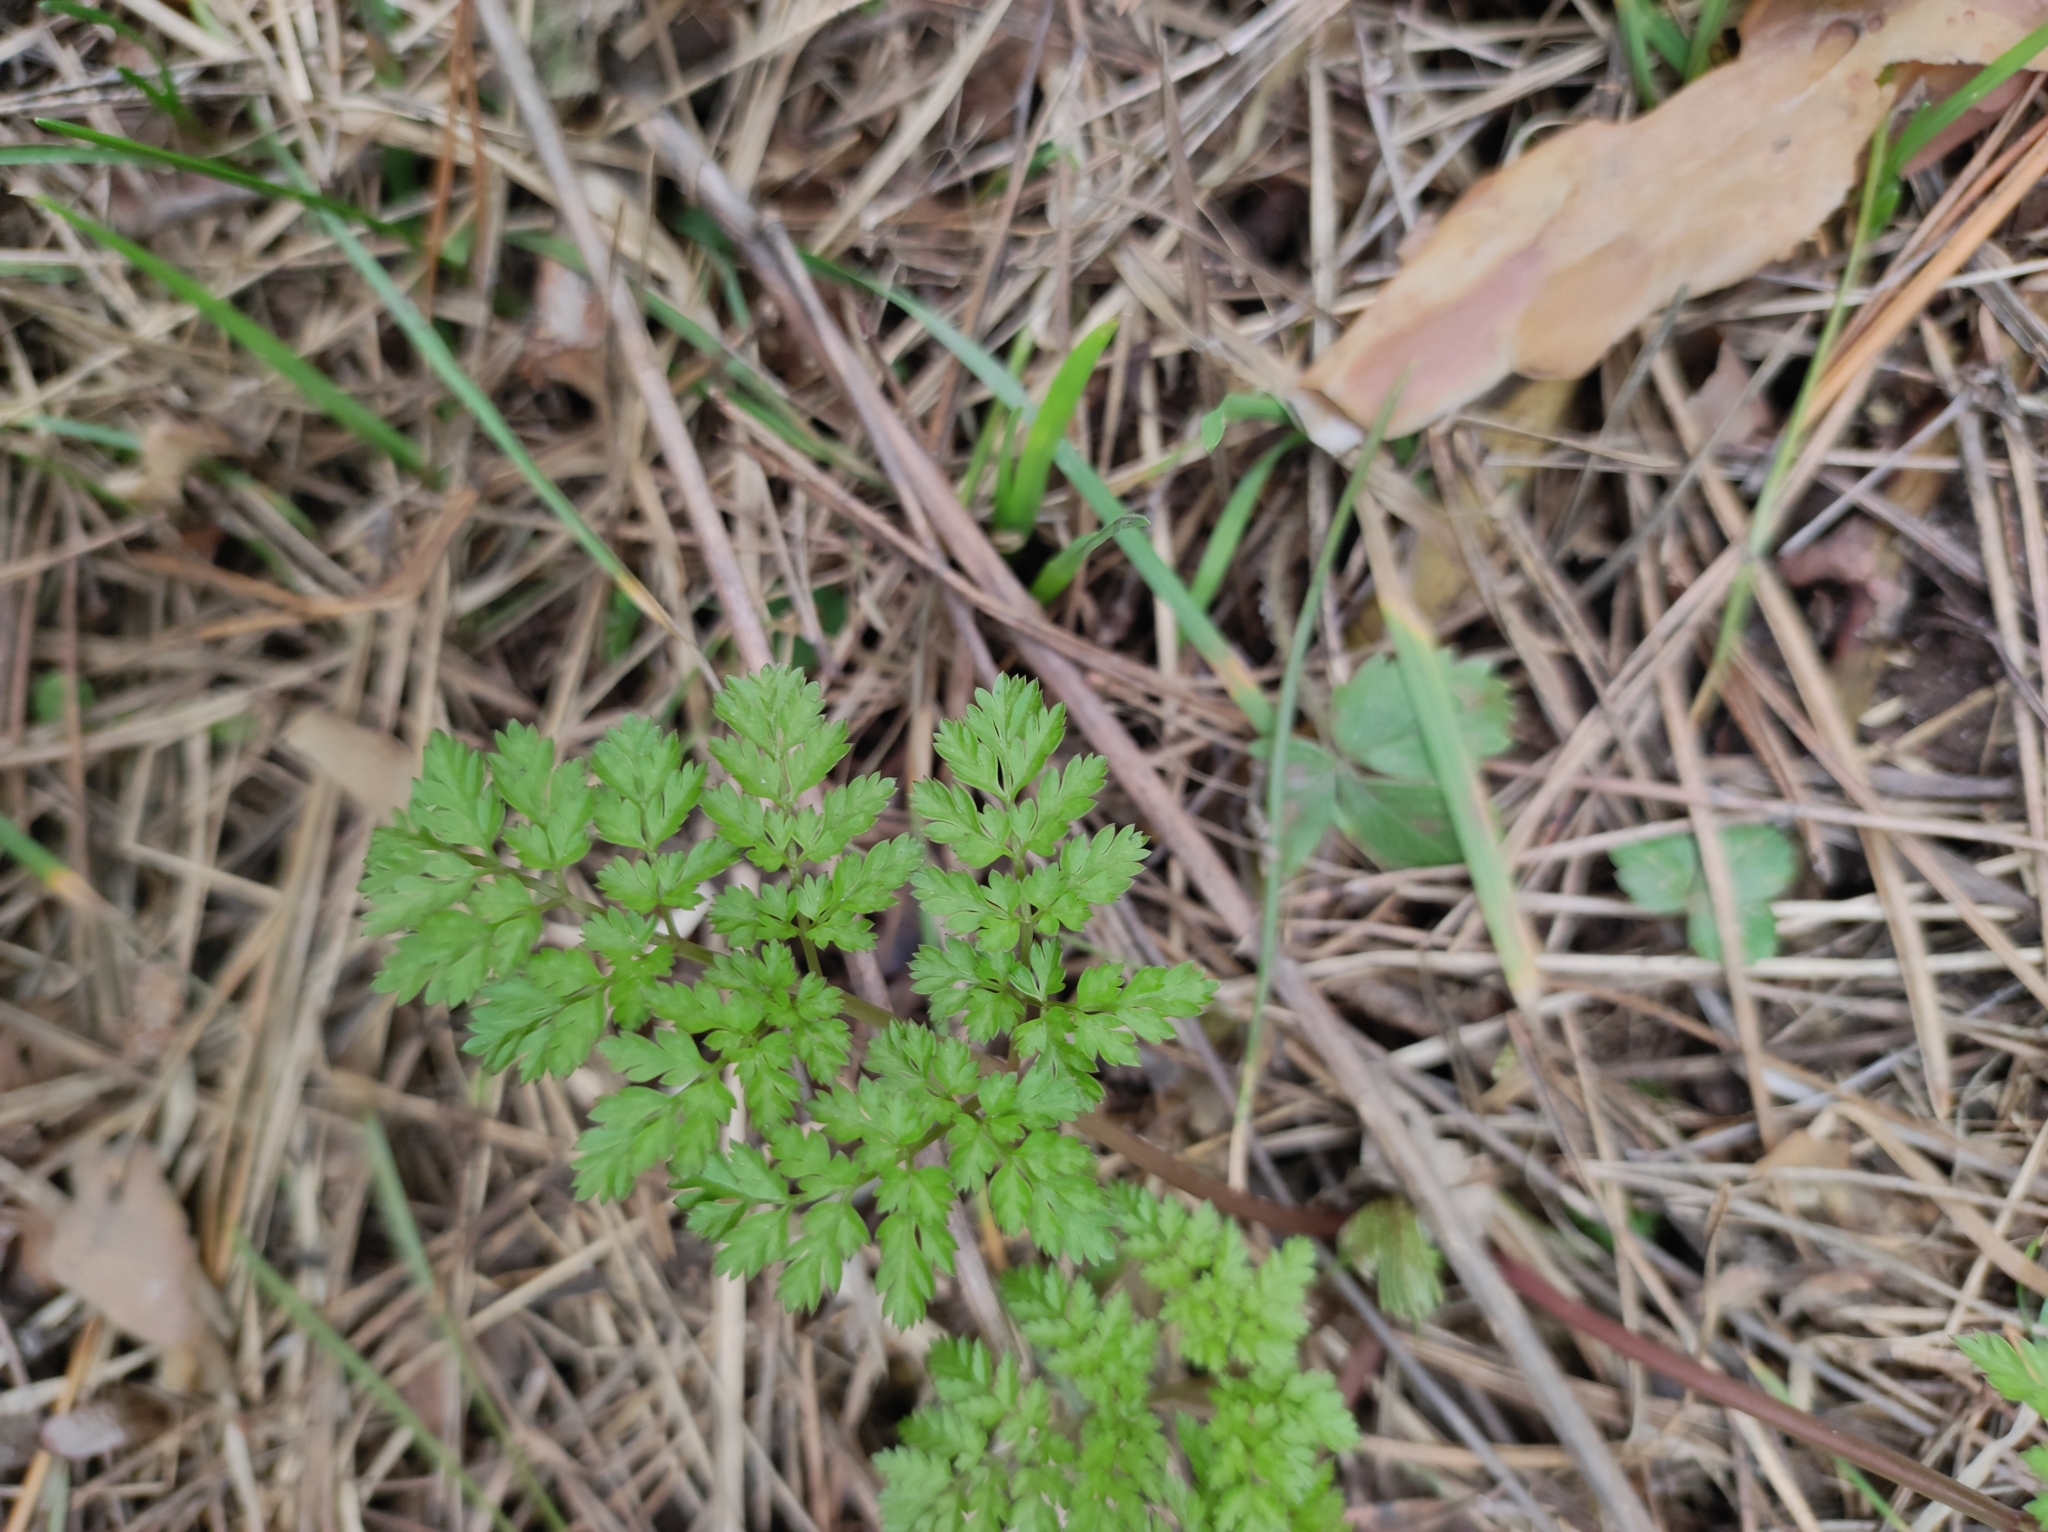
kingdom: Plantae
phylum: Tracheophyta
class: Magnoliopsida
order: Apiales
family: Apiaceae
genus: Anthriscus
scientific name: Anthriscus sylvestris
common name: Cow parsley
